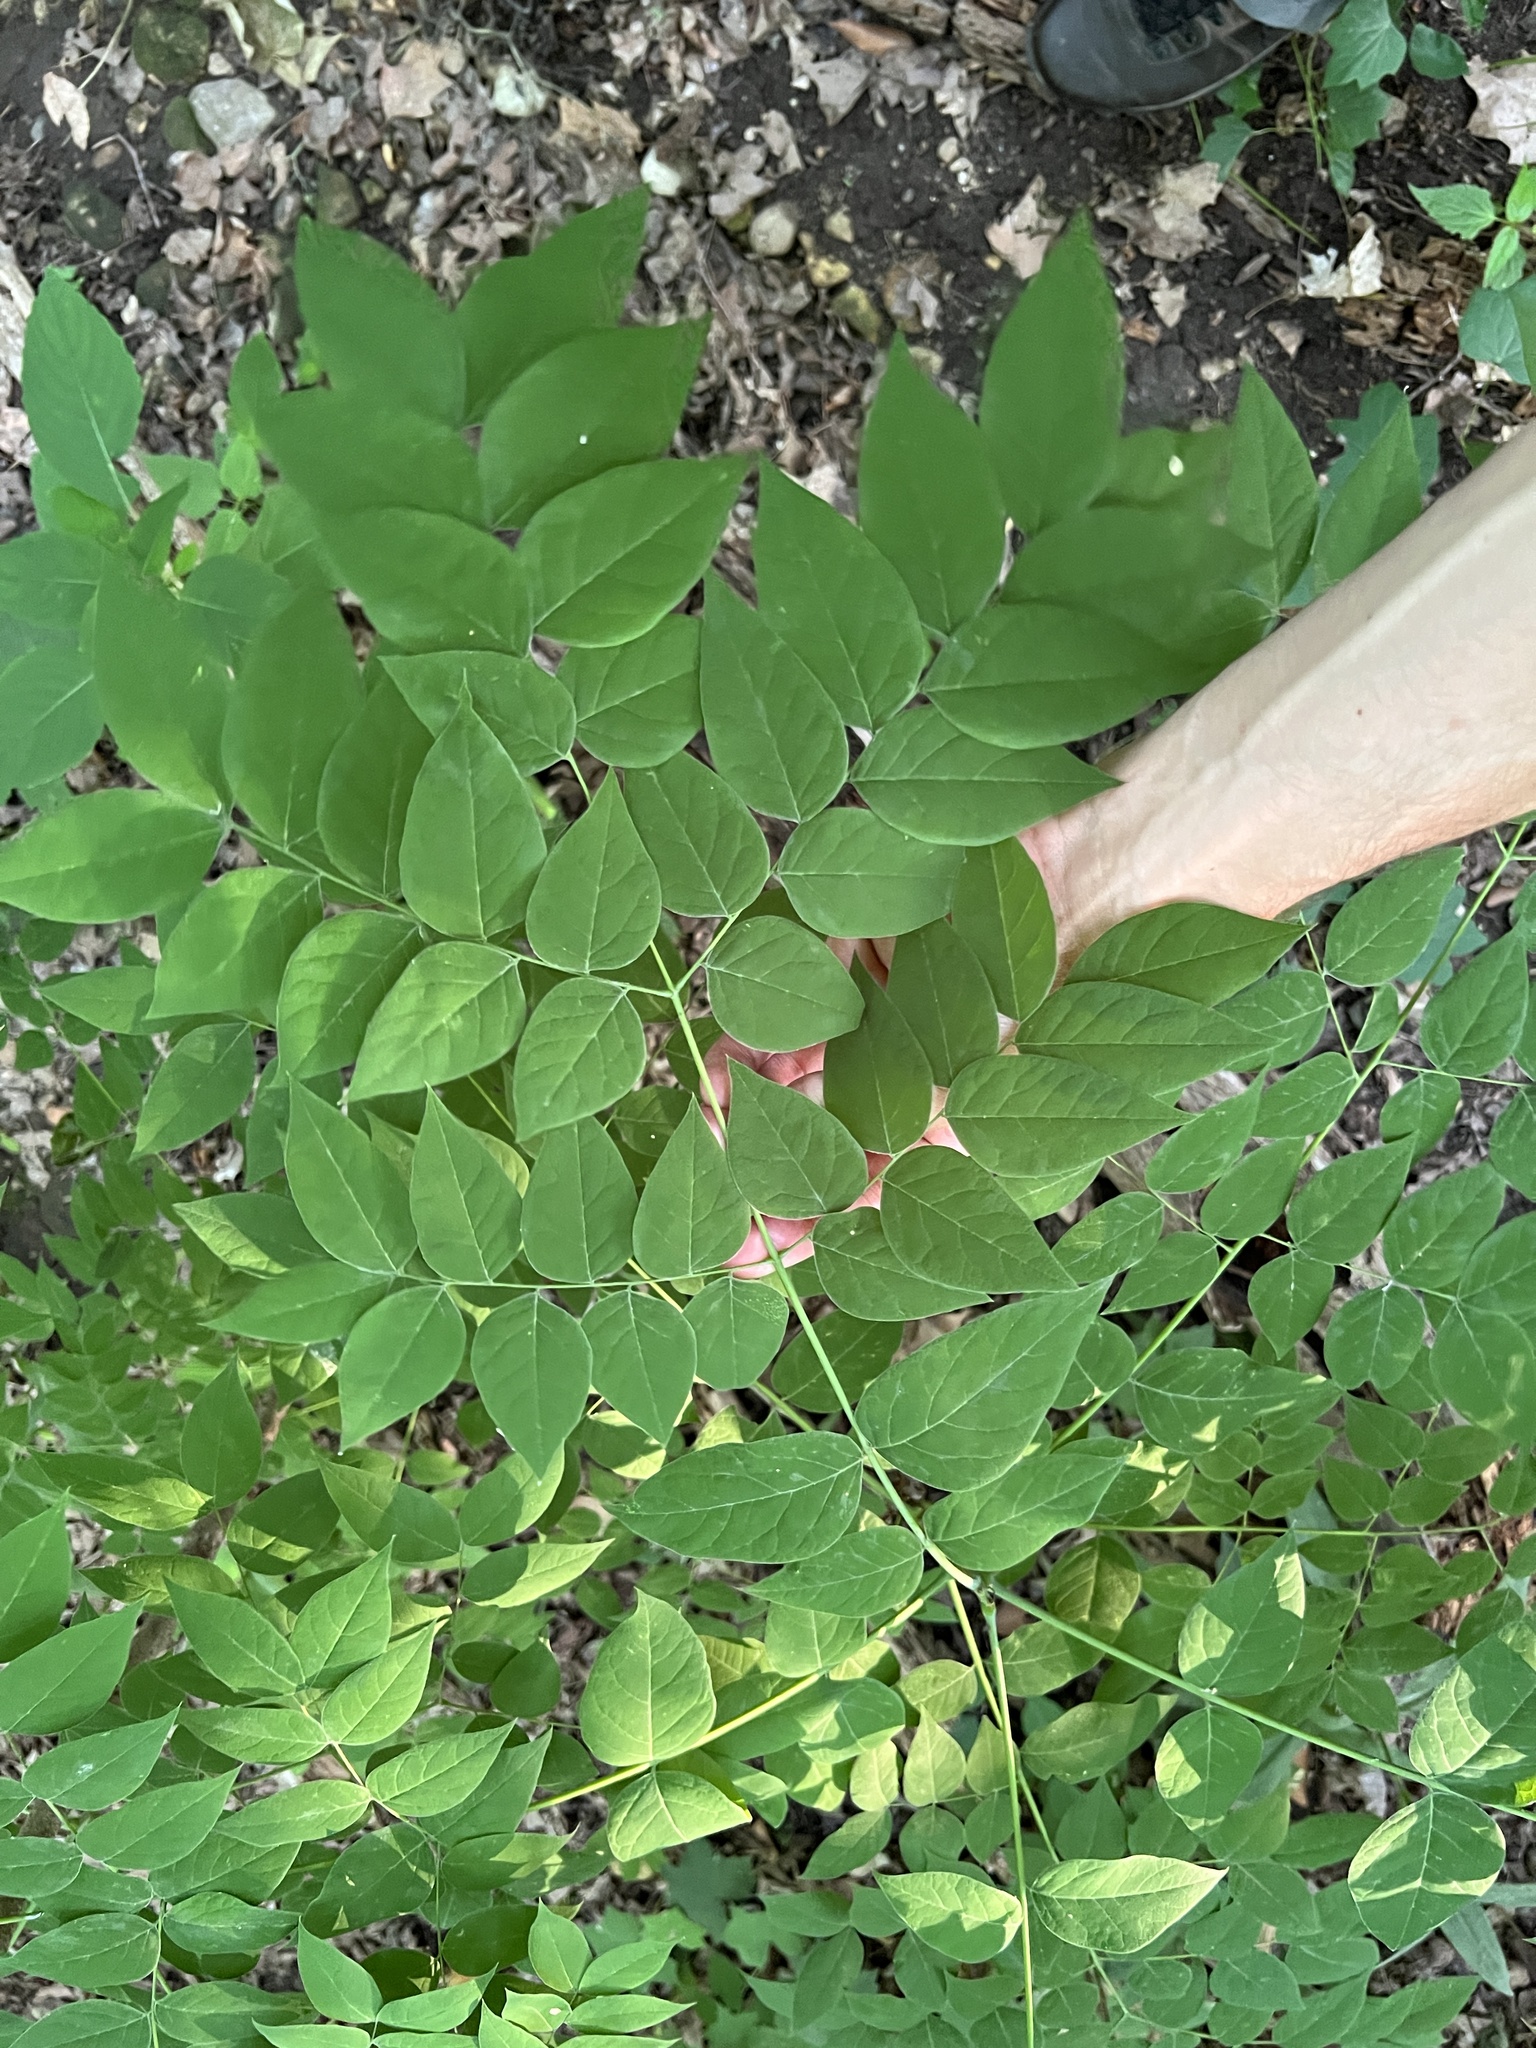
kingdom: Plantae
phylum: Tracheophyta
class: Magnoliopsida
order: Fabales
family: Fabaceae
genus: Gymnocladus
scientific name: Gymnocladus dioicus
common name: Kentucky coffee-tree
